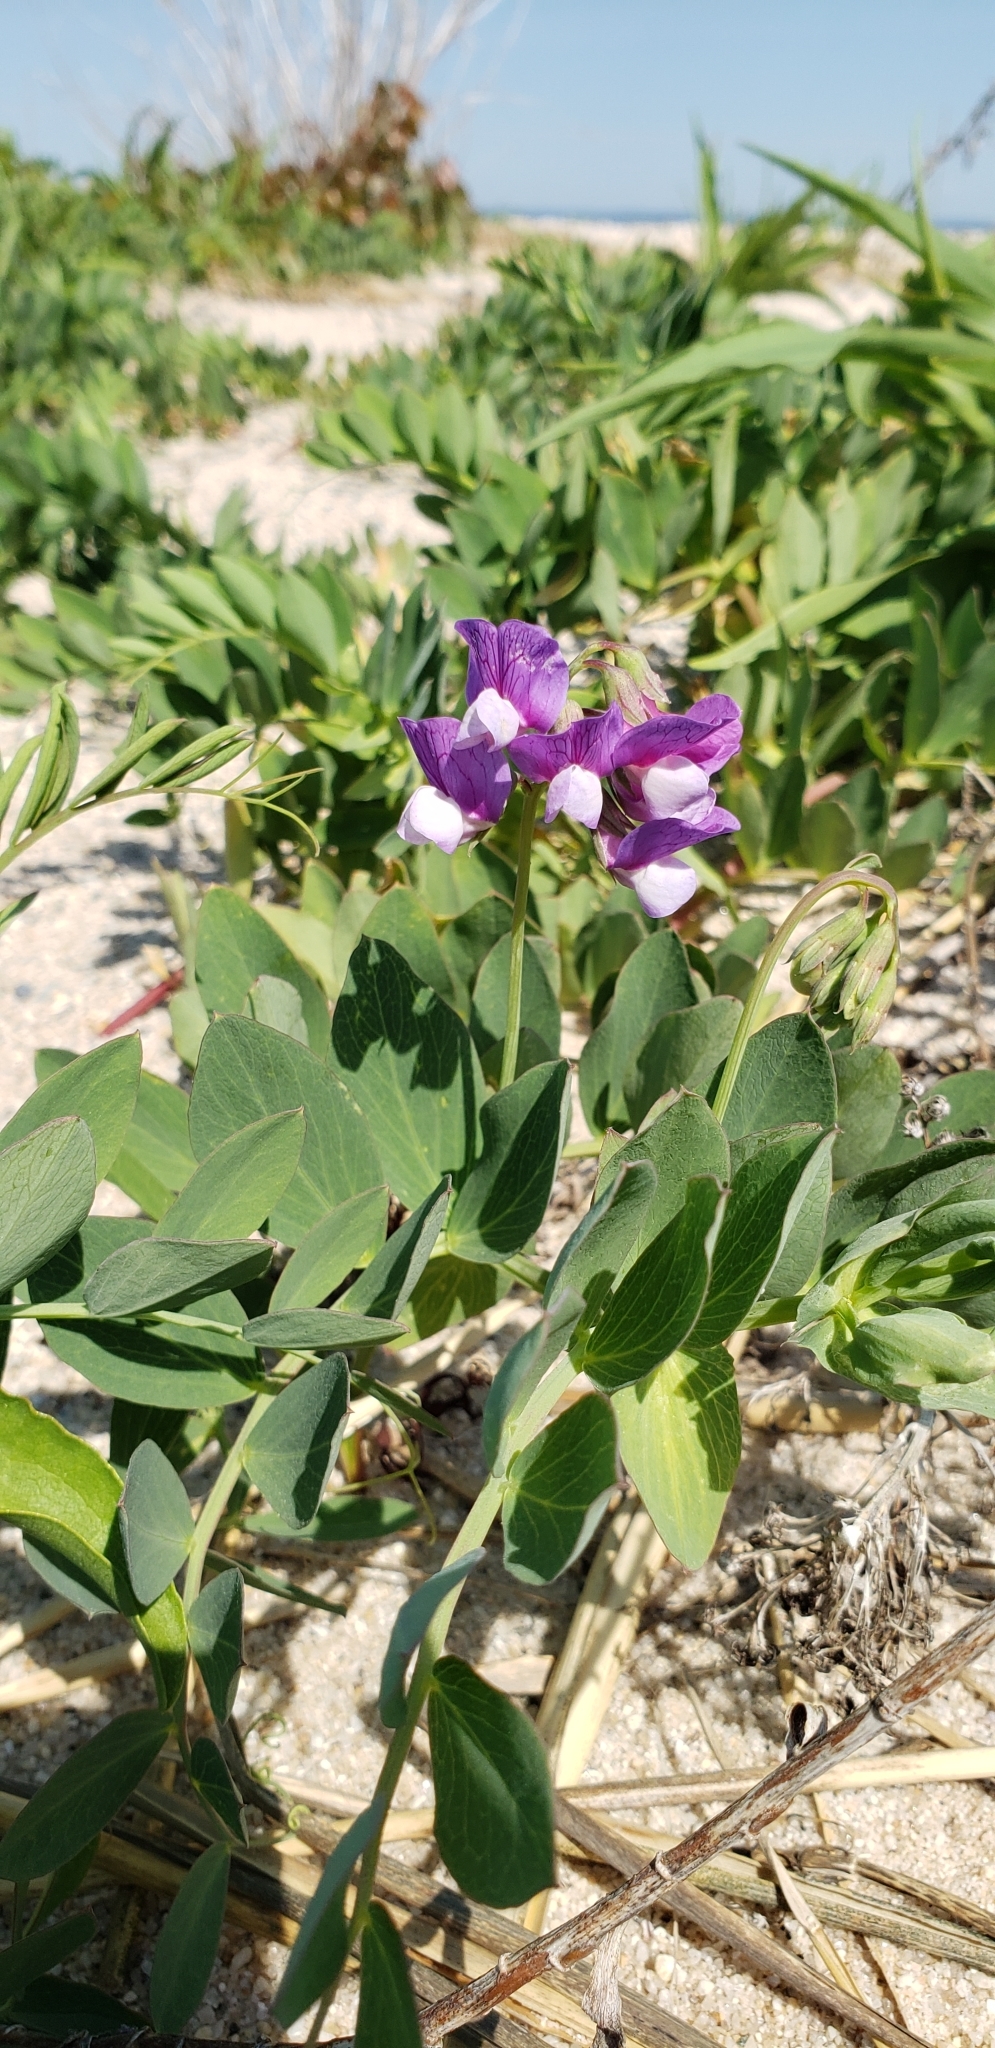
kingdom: Plantae
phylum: Tracheophyta
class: Magnoliopsida
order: Fabales
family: Fabaceae
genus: Lathyrus
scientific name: Lathyrus japonicus
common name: Sea pea
